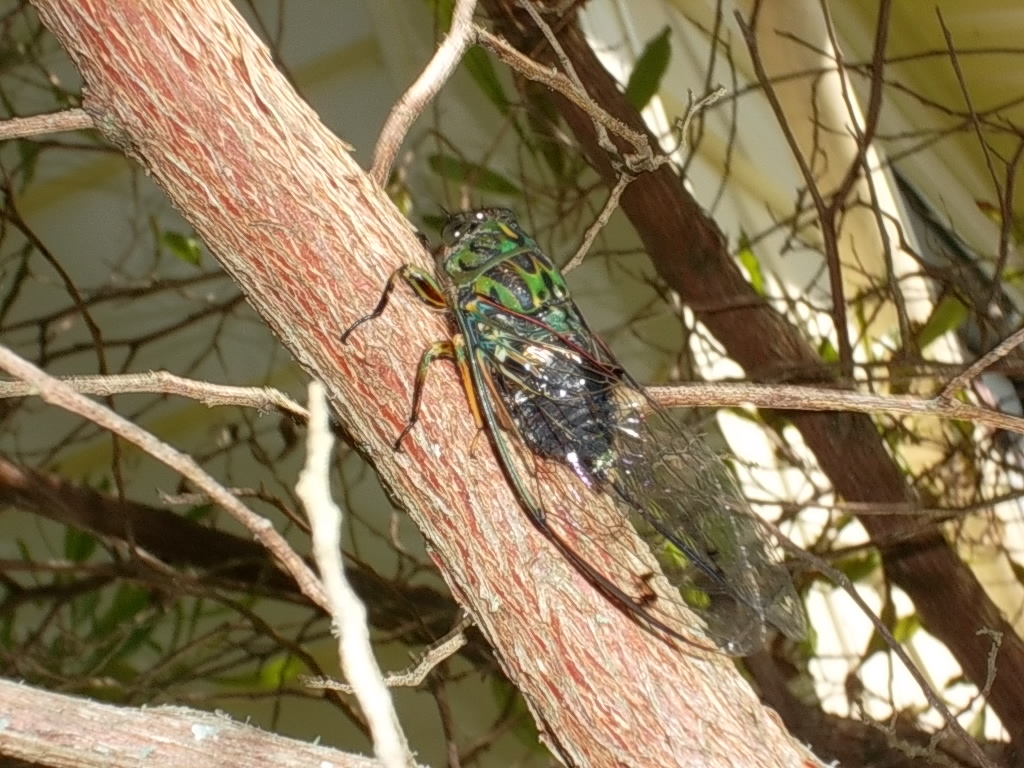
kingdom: Animalia
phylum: Arthropoda
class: Insecta
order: Hemiptera
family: Cicadidae
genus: Amphipsalta
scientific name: Amphipsalta zelandica
